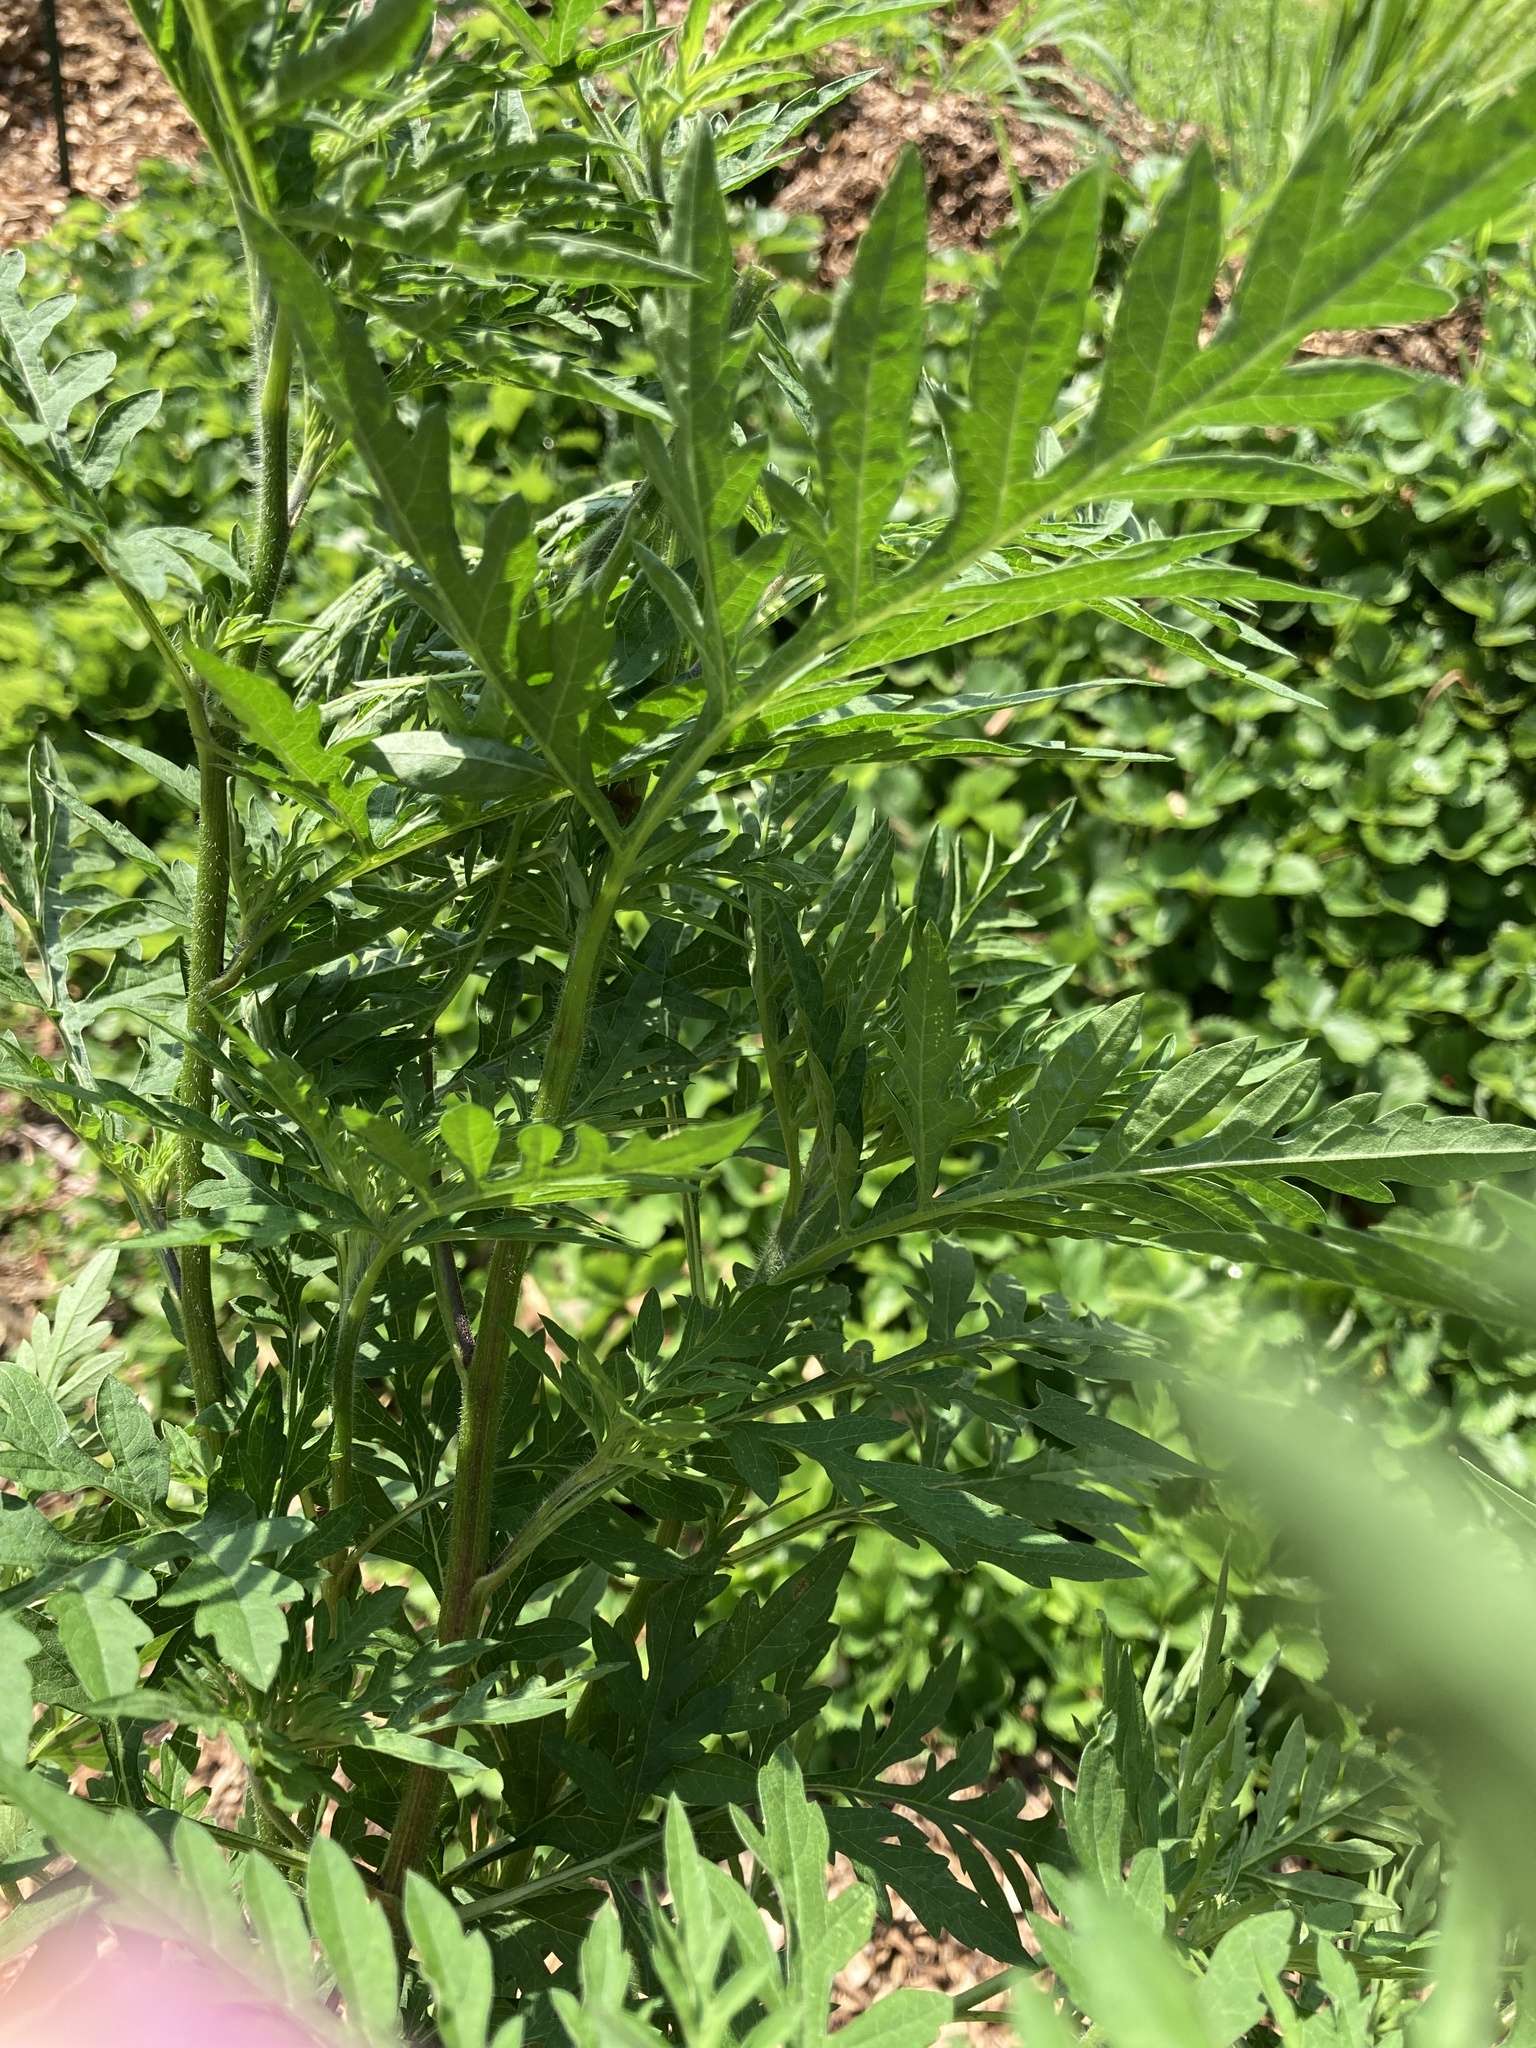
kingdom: Plantae
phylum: Tracheophyta
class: Magnoliopsida
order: Asterales
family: Asteraceae
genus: Ambrosia
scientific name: Ambrosia artemisiifolia
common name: Annual ragweed
